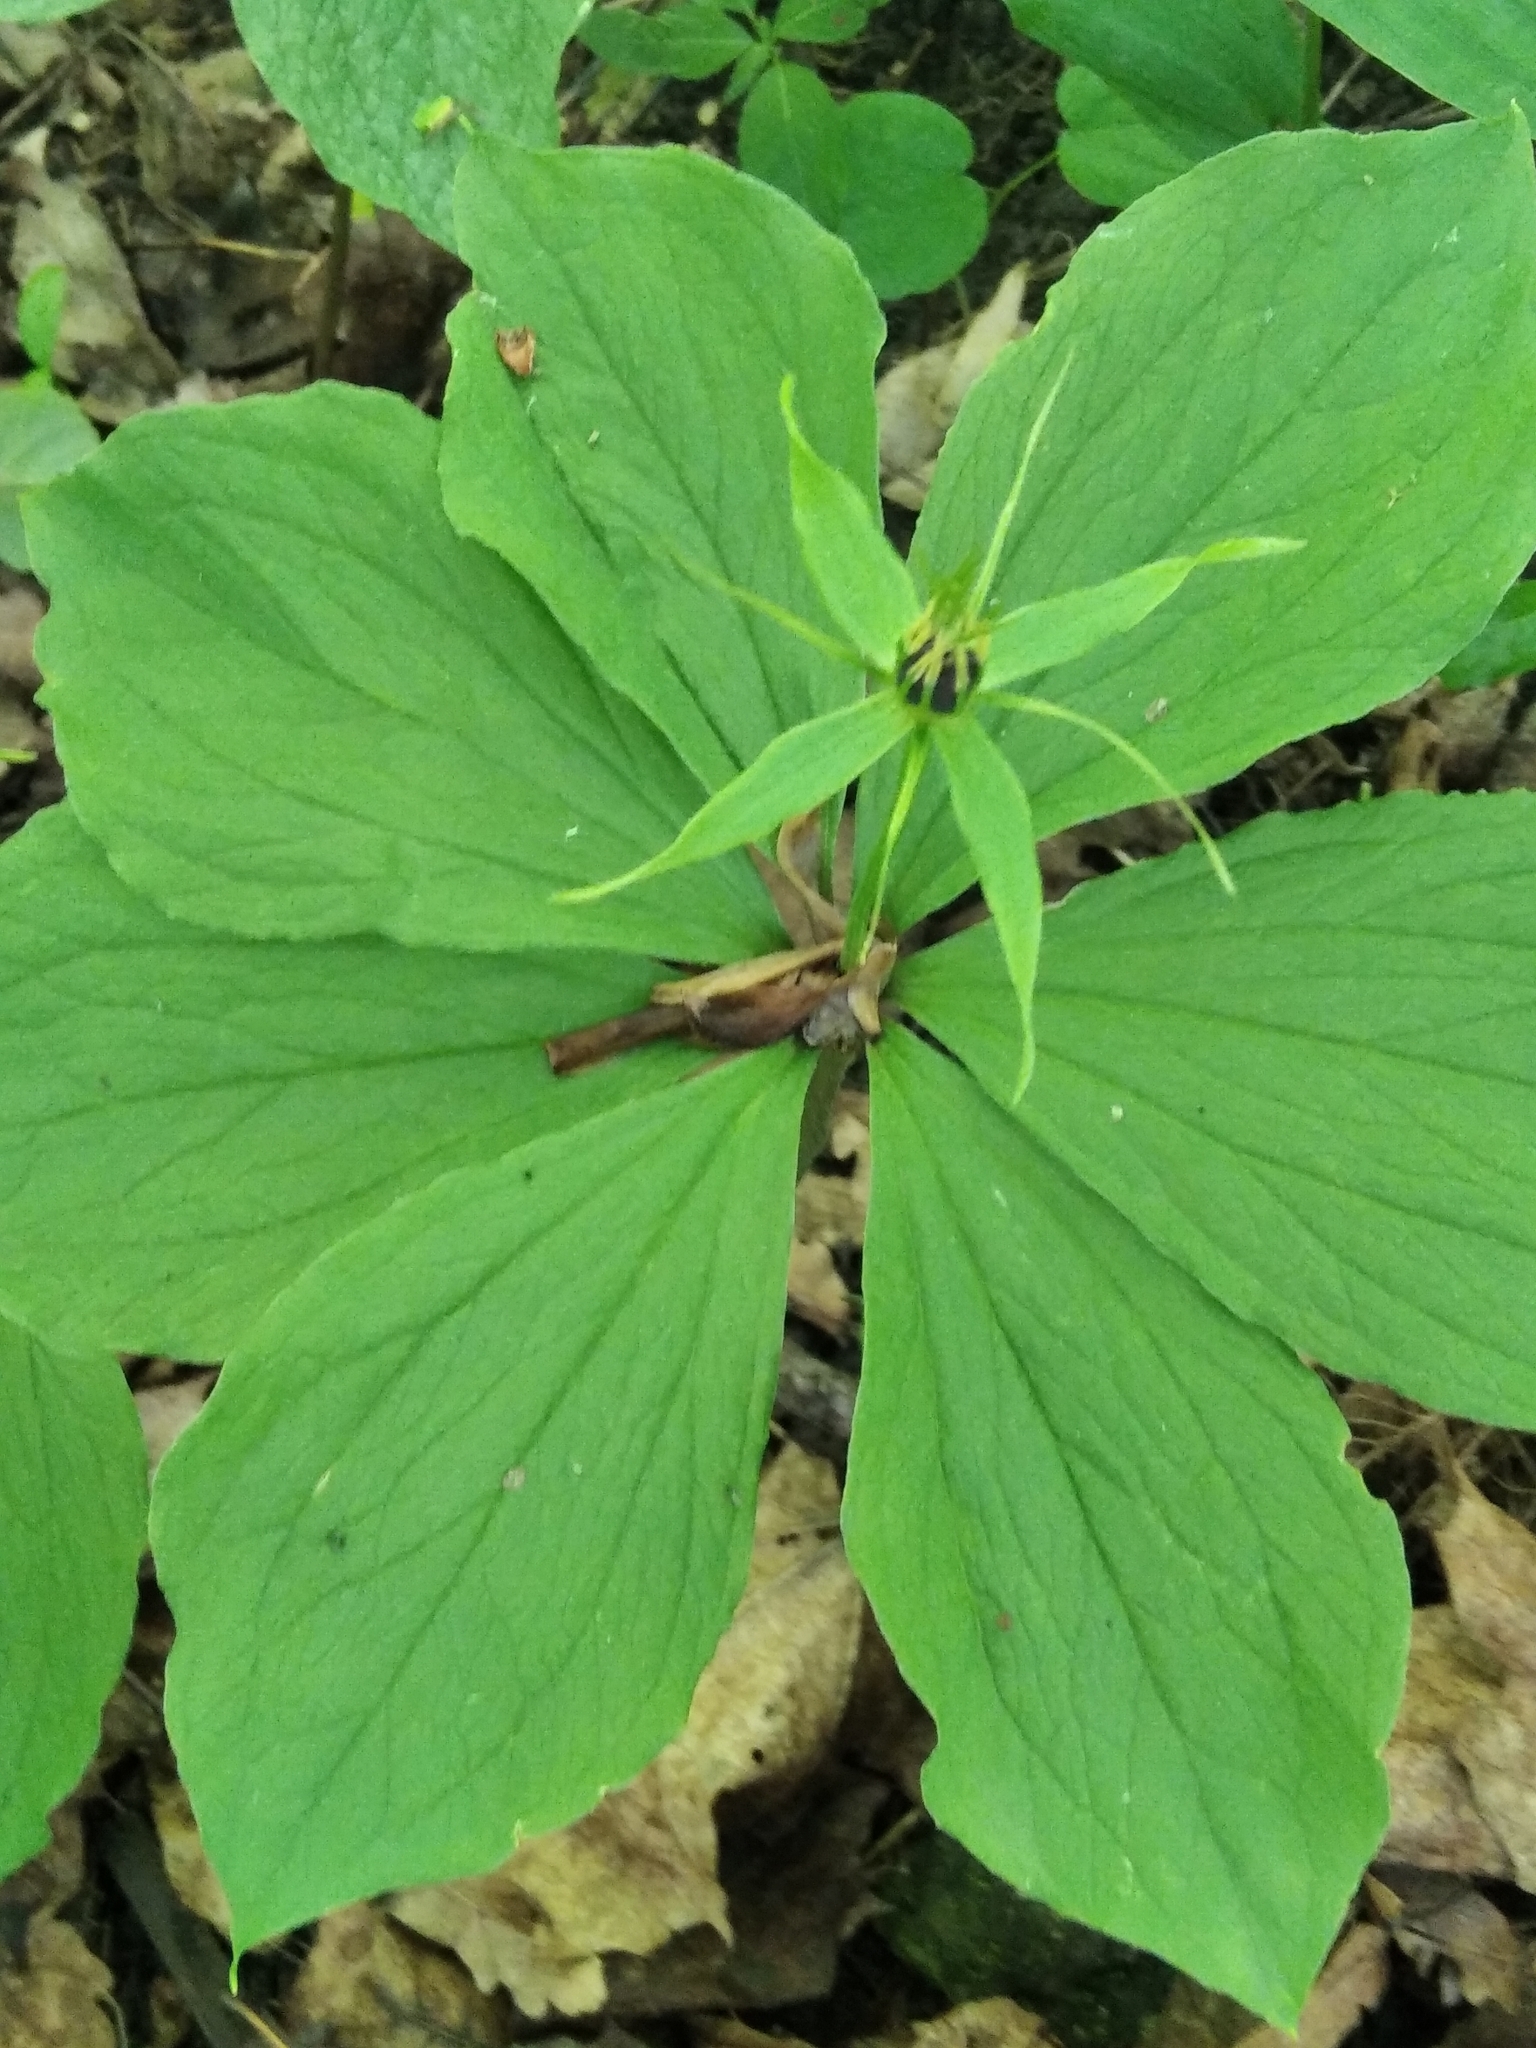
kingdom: Plantae
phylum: Tracheophyta
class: Liliopsida
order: Liliales
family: Melanthiaceae
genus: Paris
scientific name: Paris quadrifolia
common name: Herb-paris
